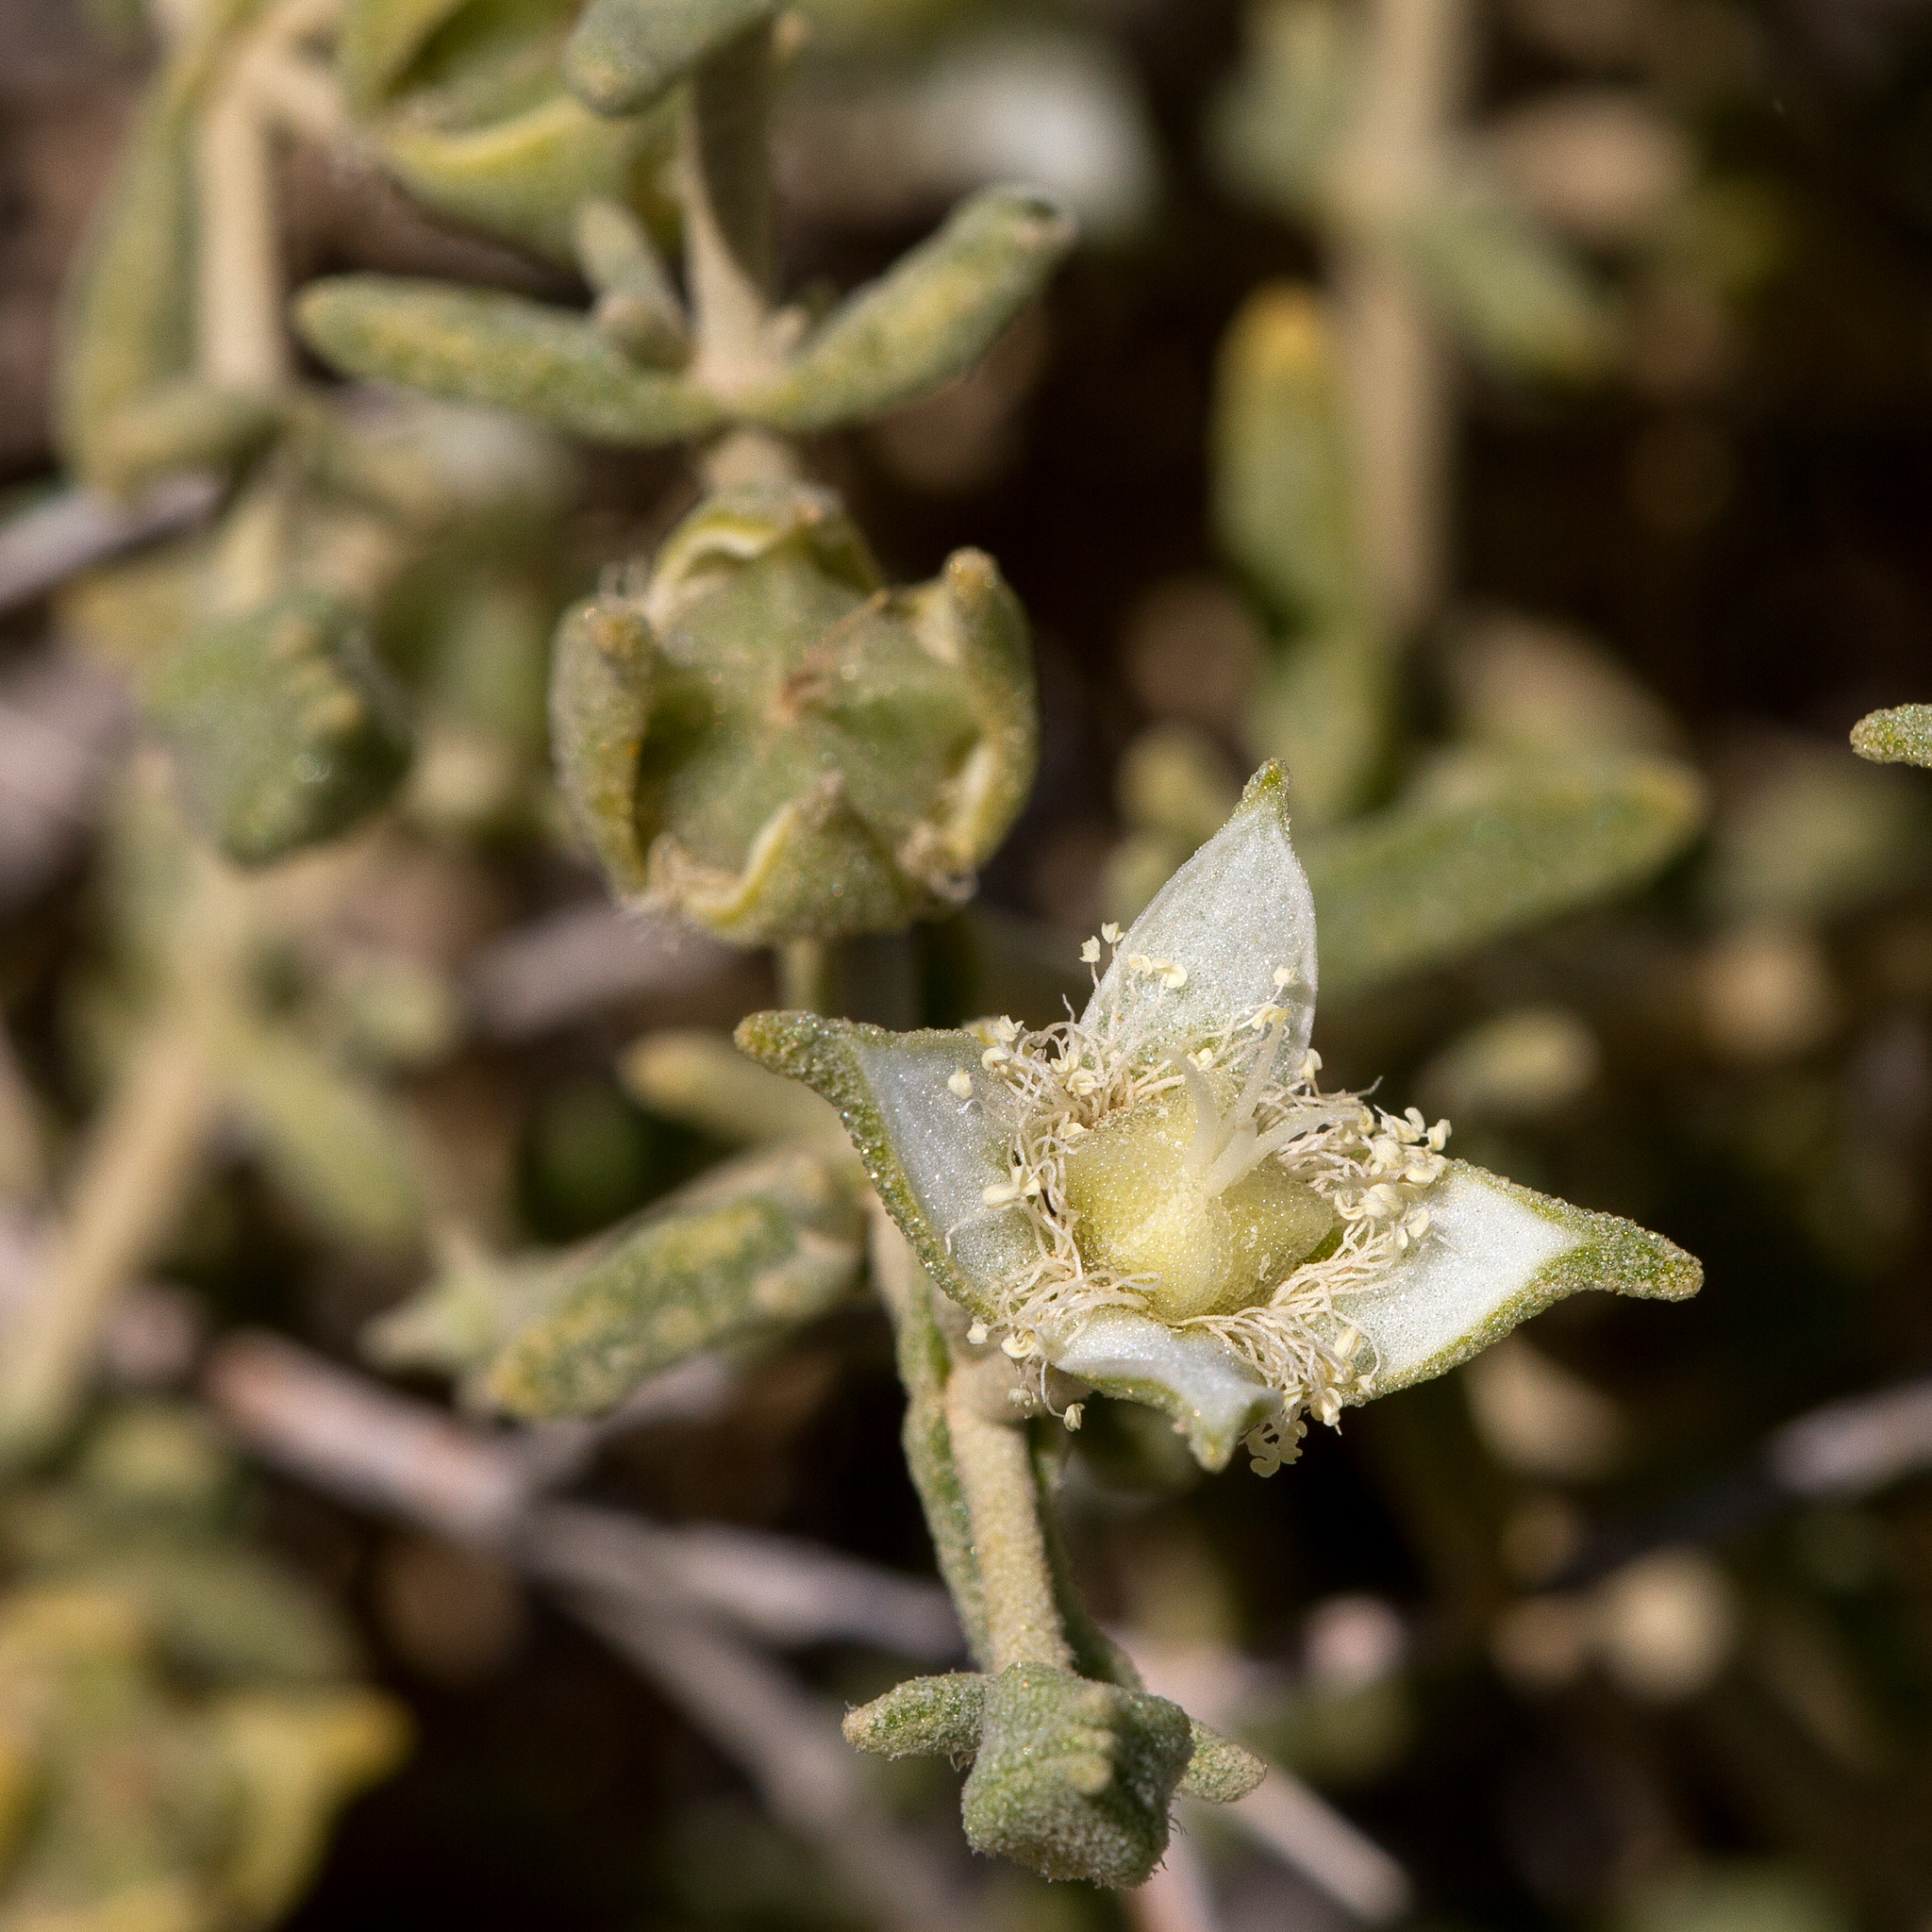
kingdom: Plantae
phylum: Tracheophyta
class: Magnoliopsida
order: Caryophyllales
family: Aizoaceae
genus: Gunniopsis
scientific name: Gunniopsis quadrifida
